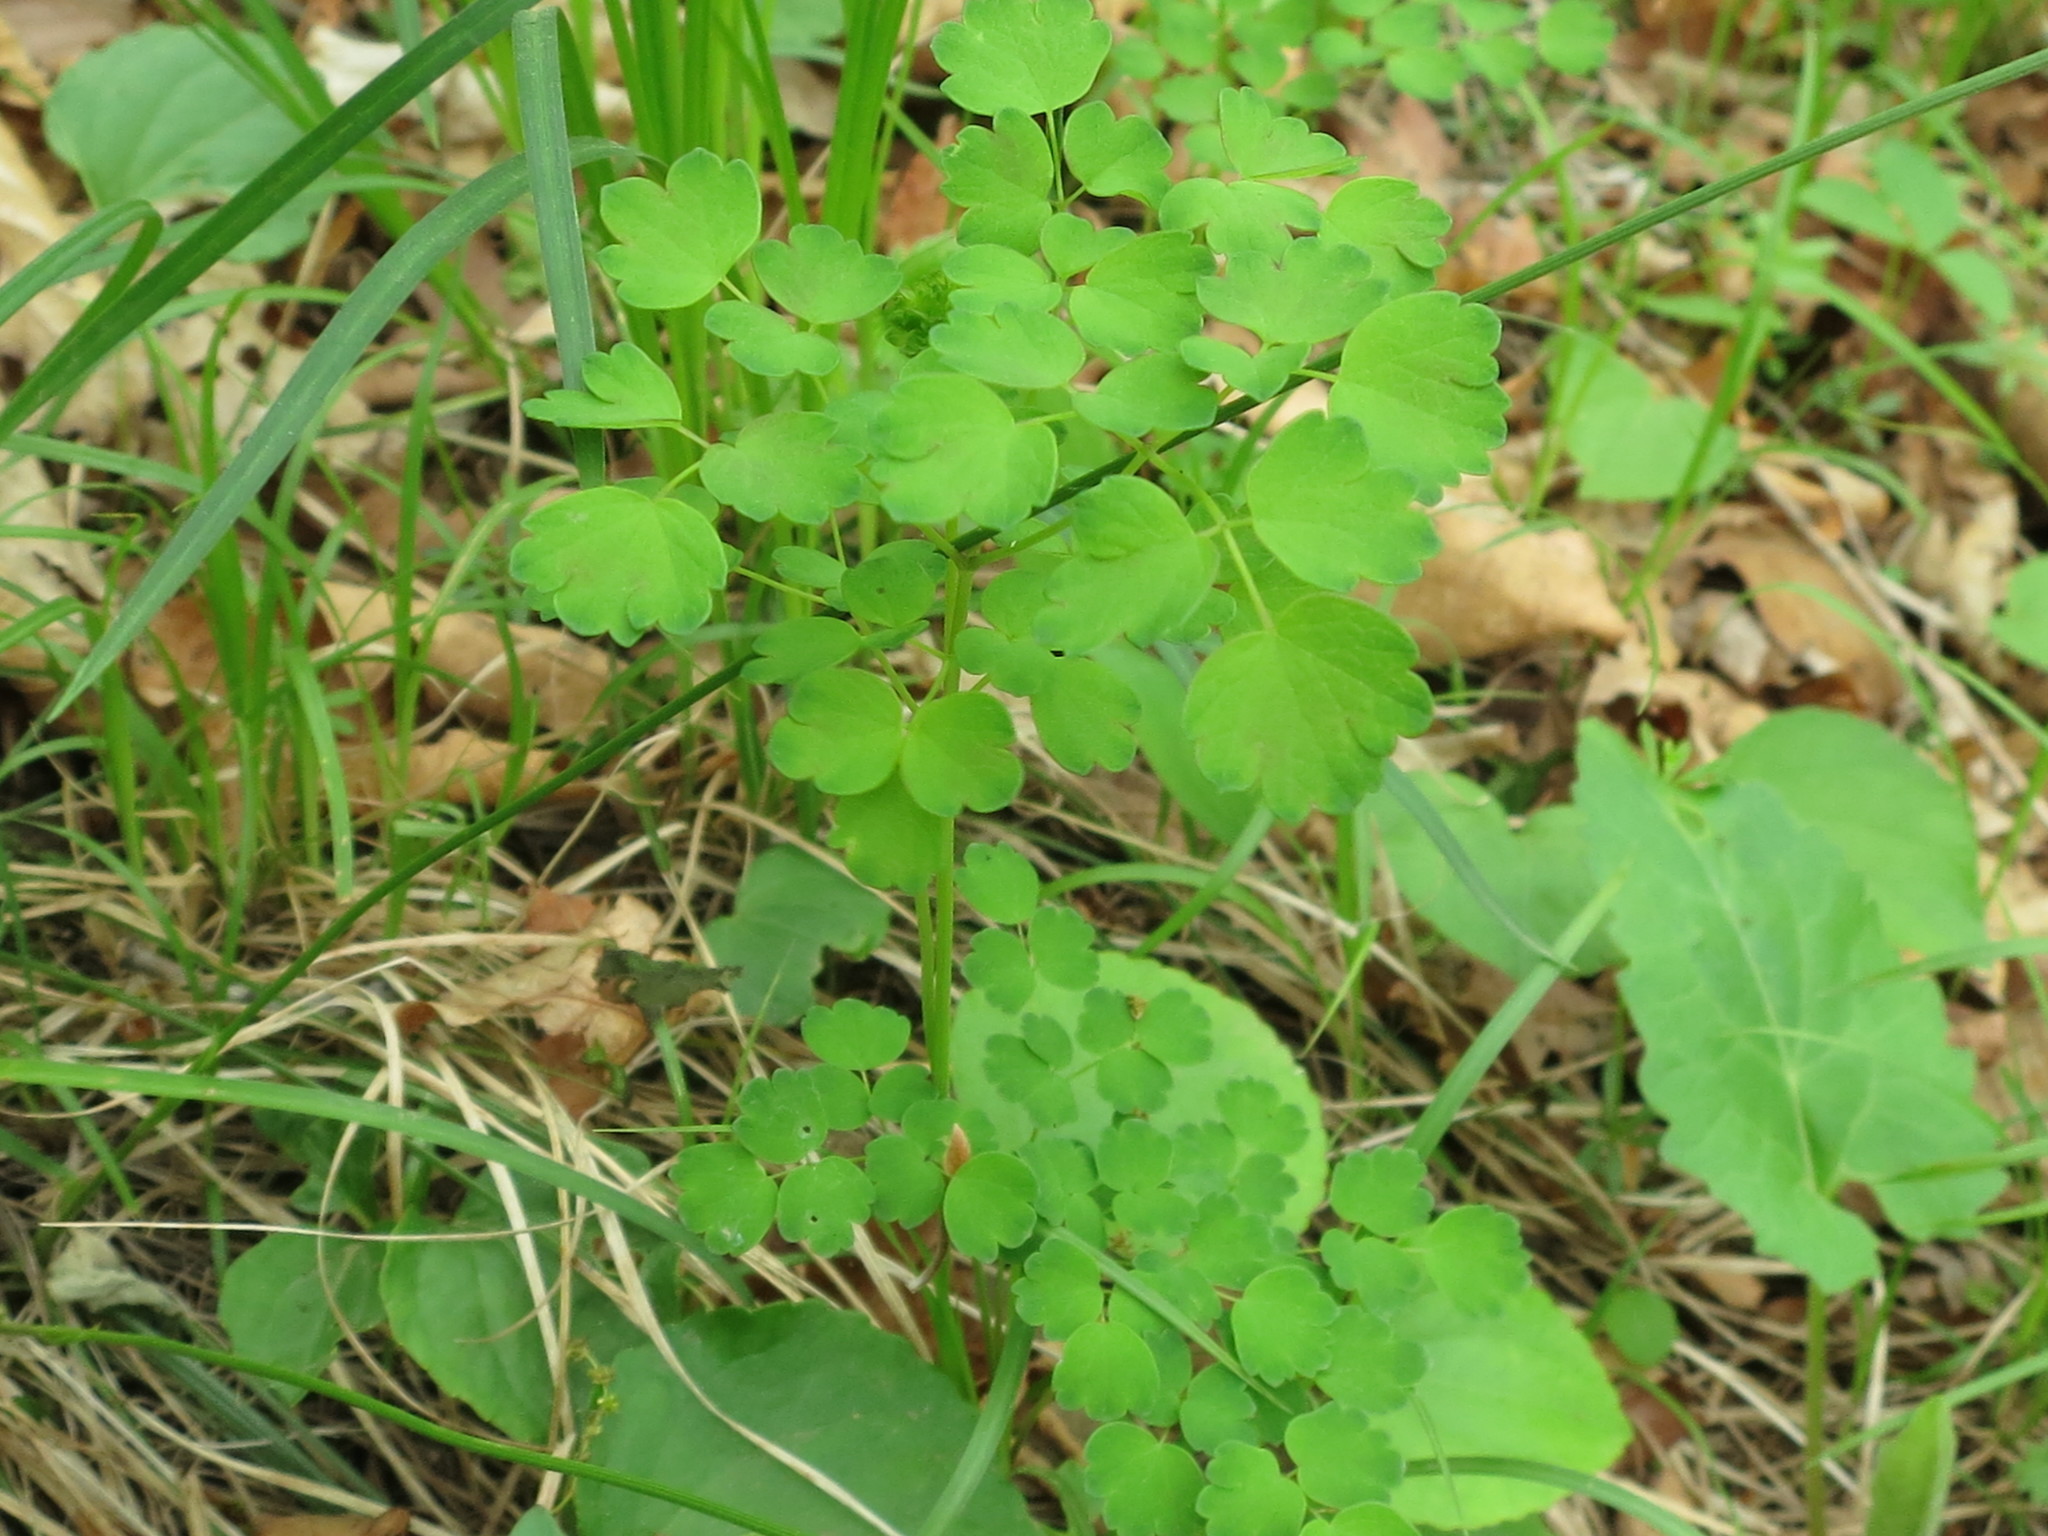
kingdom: Plantae
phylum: Tracheophyta
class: Magnoliopsida
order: Ranunculales
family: Ranunculaceae
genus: Thalictrum
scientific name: Thalictrum aquilegiifolium
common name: French meadow-rue
